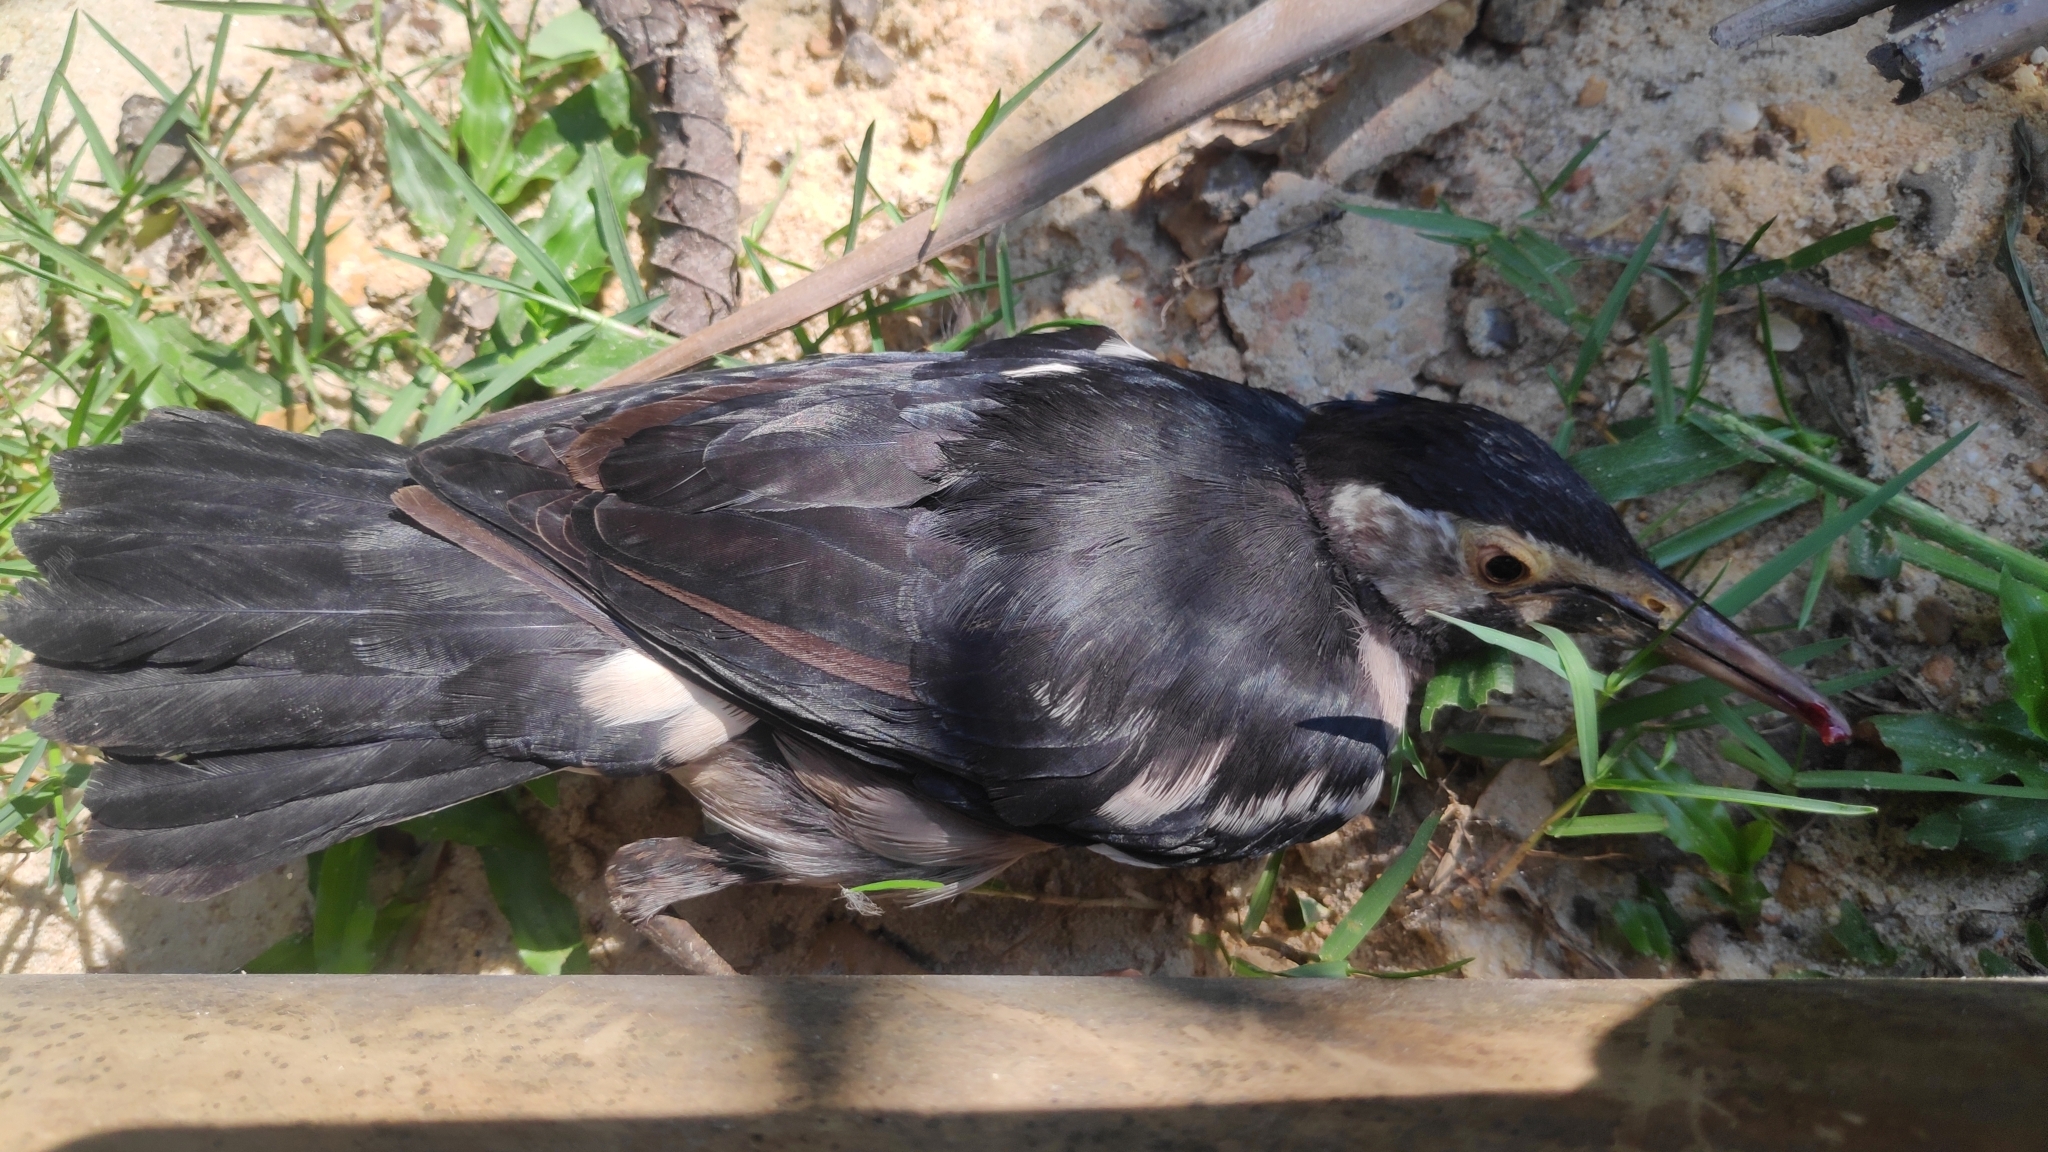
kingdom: Animalia
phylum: Chordata
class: Aves
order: Passeriformes
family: Sturnidae
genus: Gracupica
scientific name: Gracupica contra
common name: Pied myna
